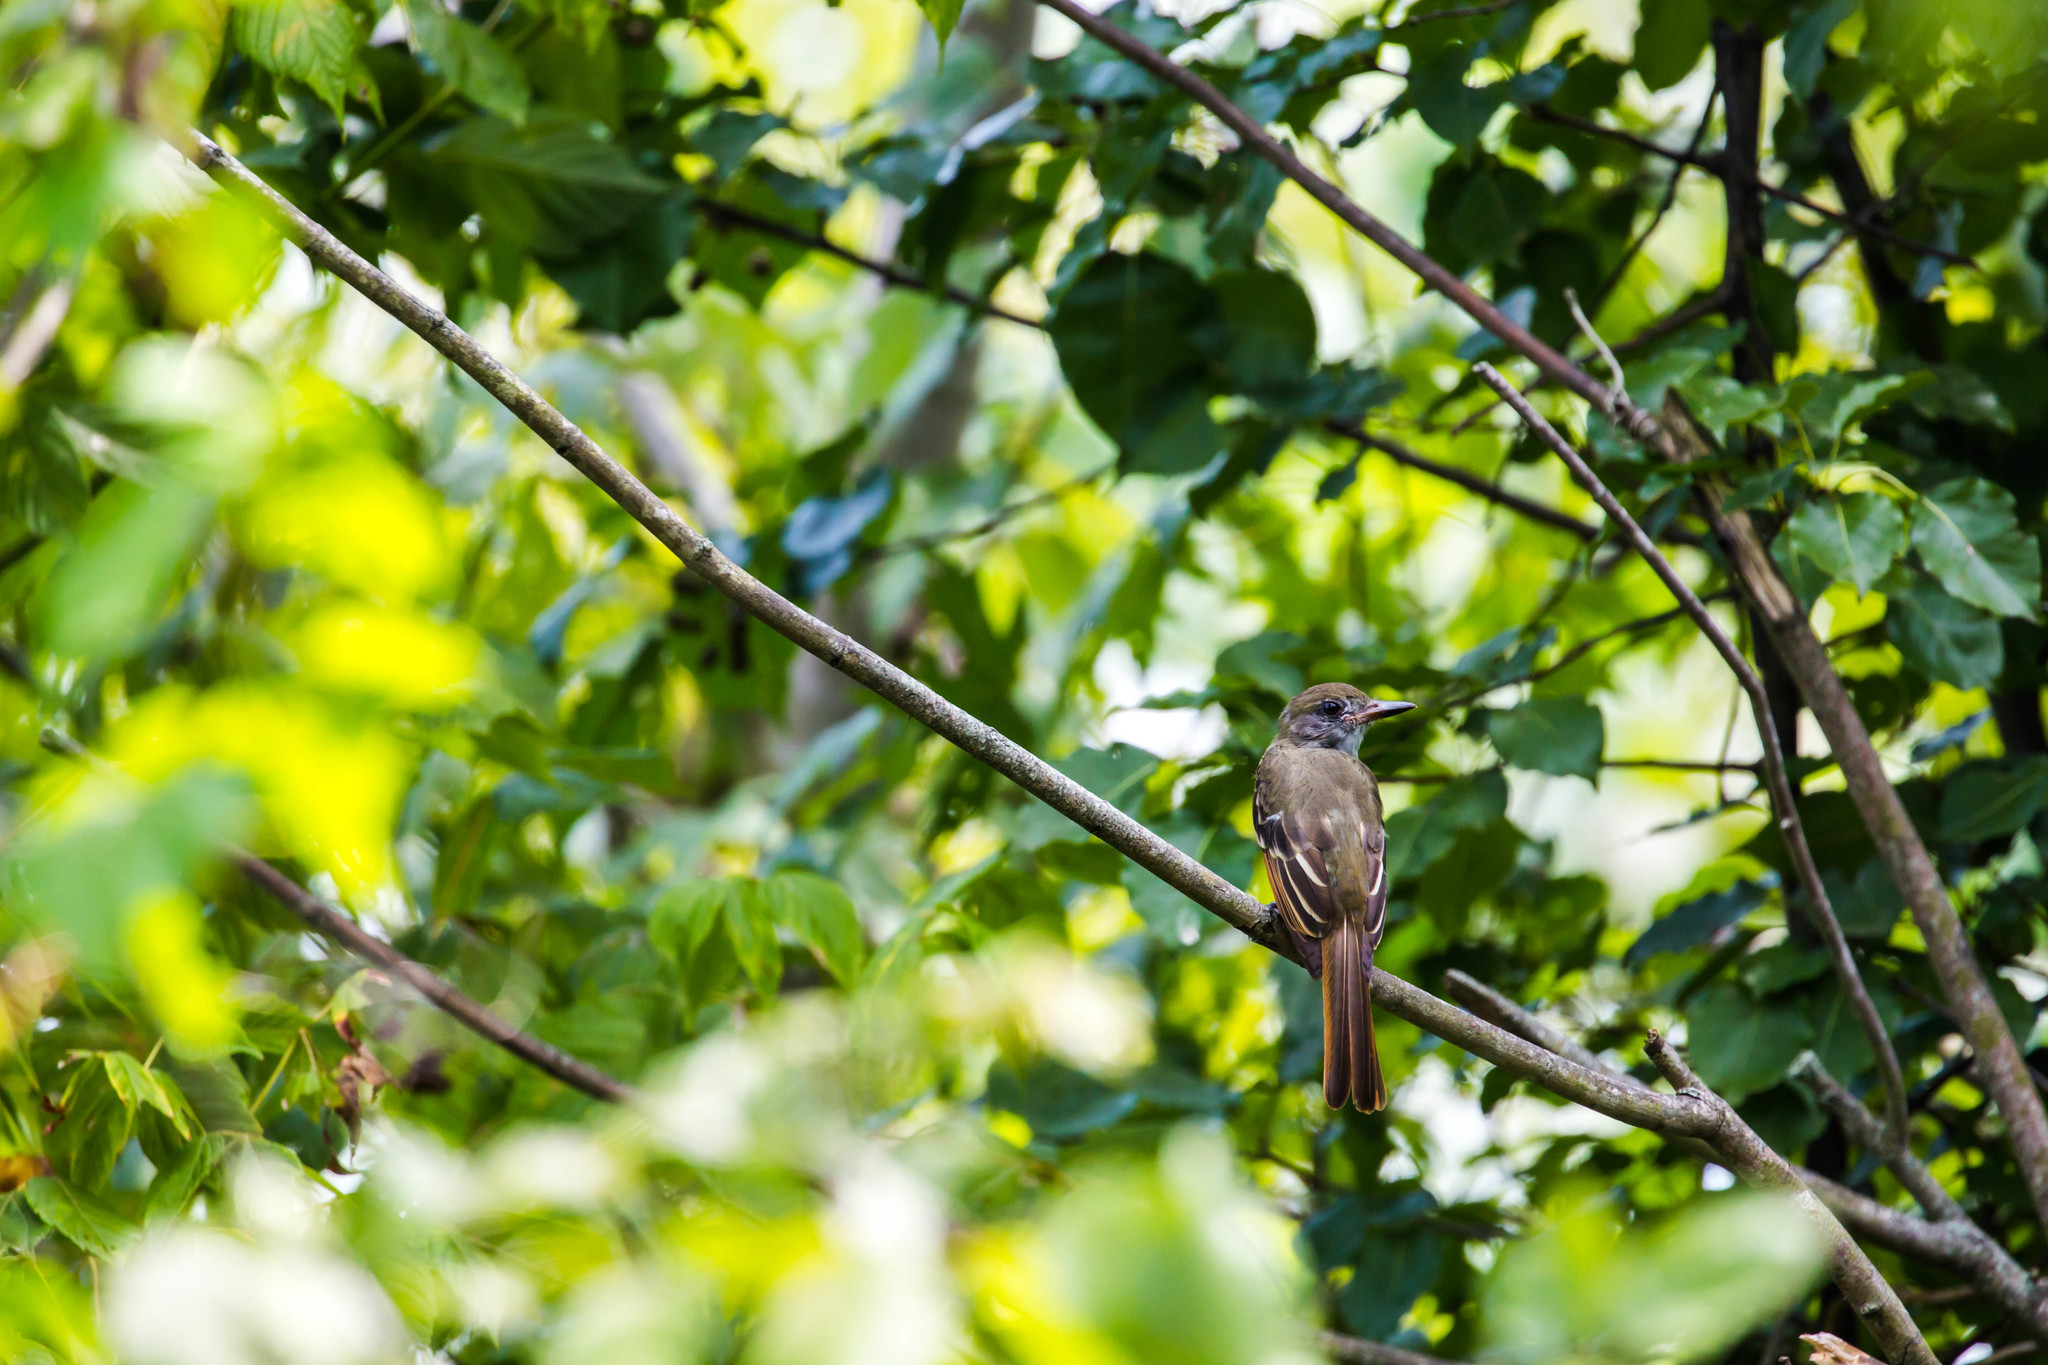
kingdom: Animalia
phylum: Chordata
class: Aves
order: Passeriformes
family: Tyrannidae
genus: Myiarchus
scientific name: Myiarchus crinitus
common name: Great crested flycatcher
